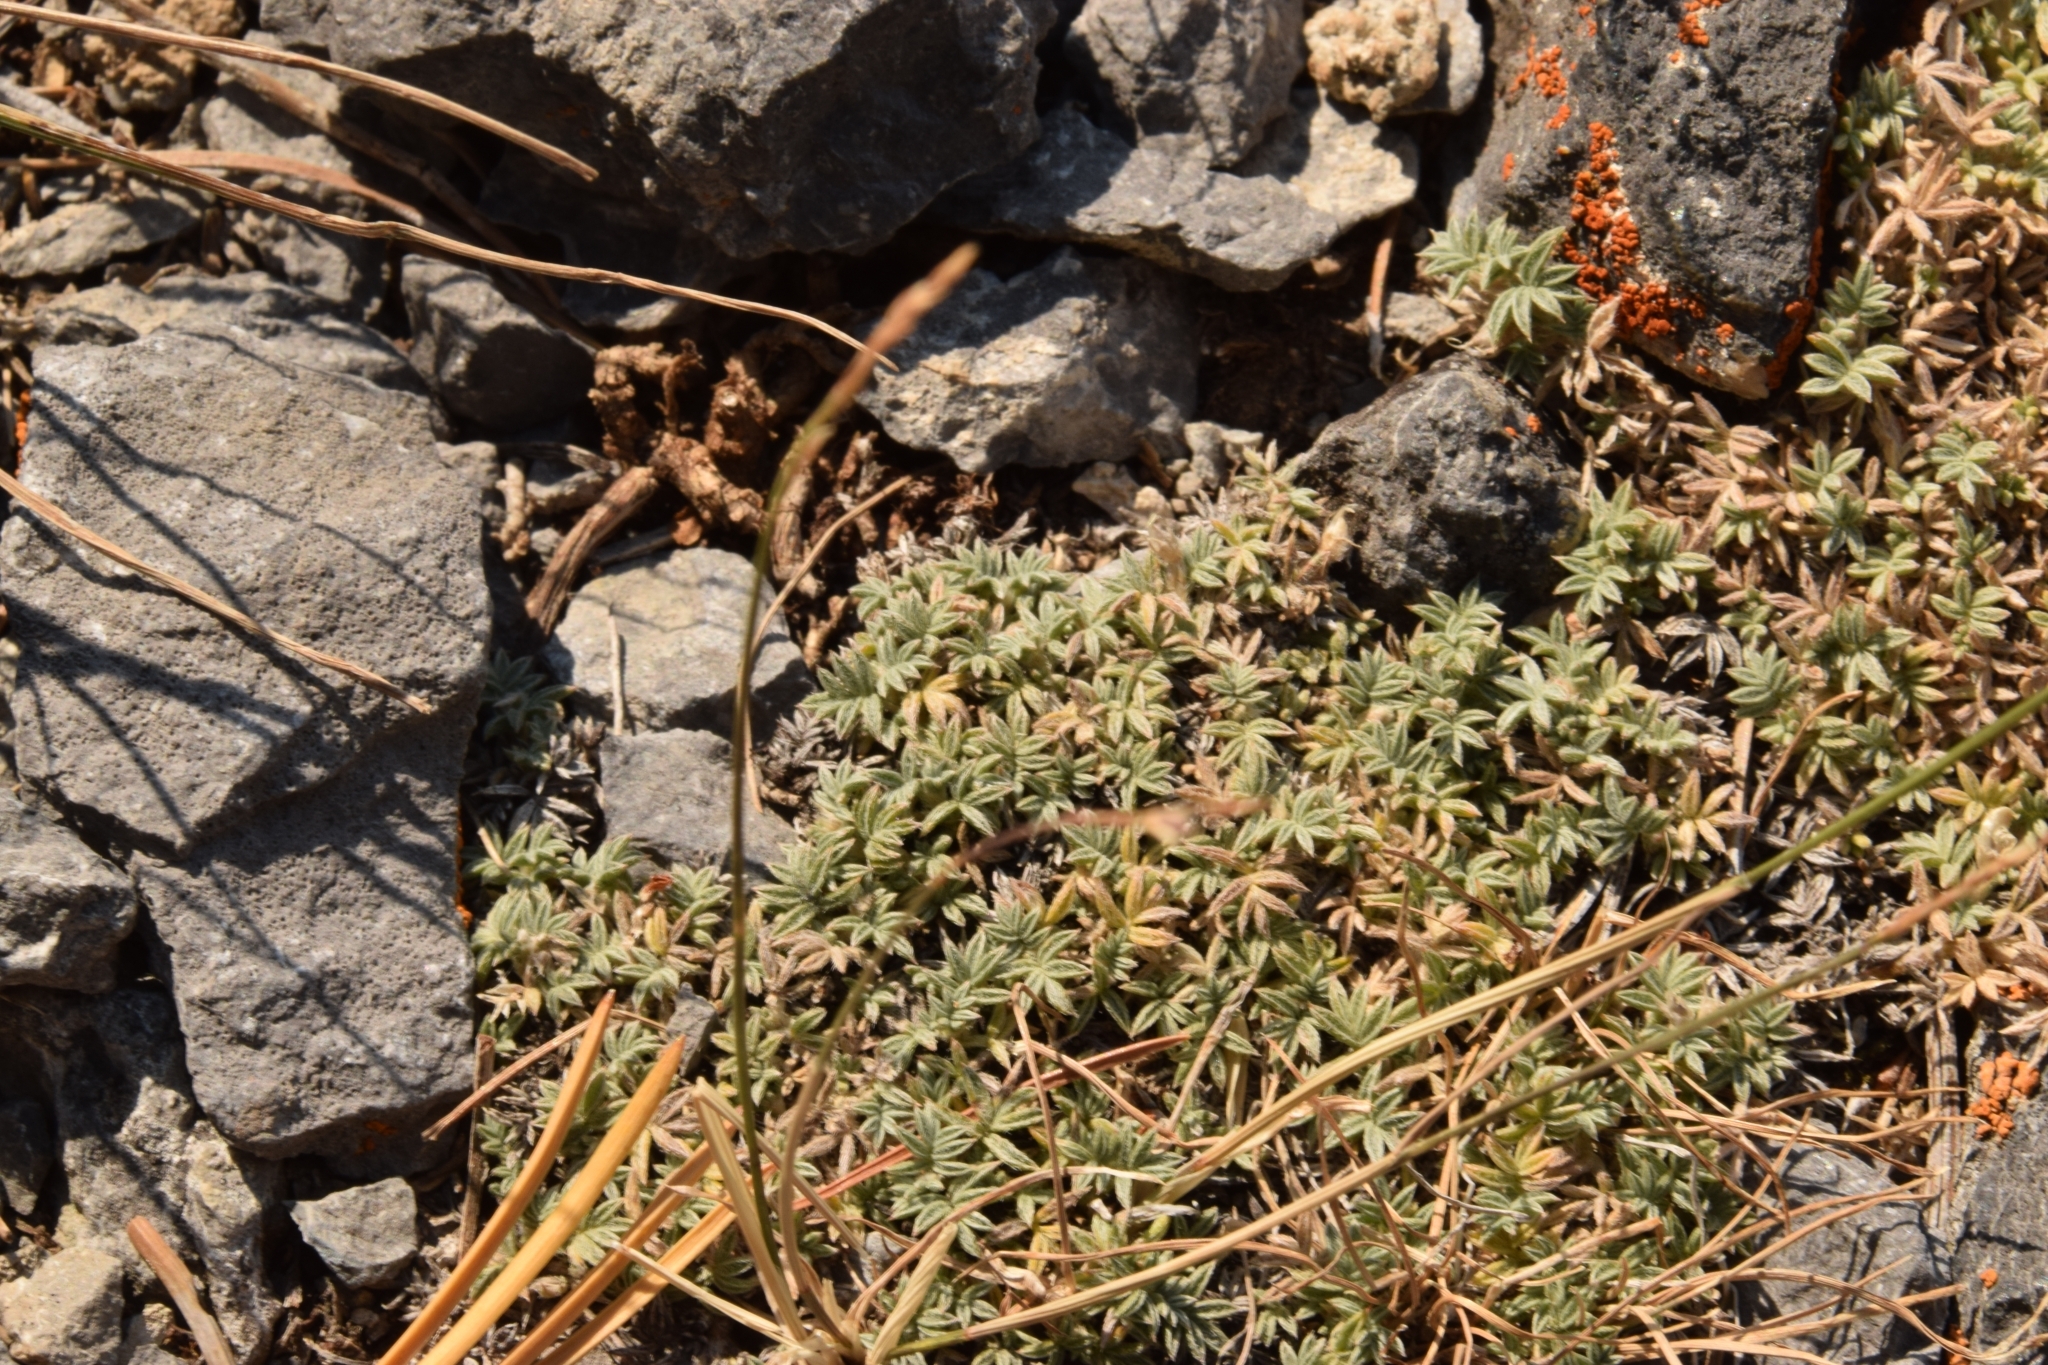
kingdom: Plantae
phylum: Tracheophyta
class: Magnoliopsida
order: Fabales
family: Fabaceae
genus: Astragalus
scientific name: Astragalus kentrophyta
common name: Prickly milk-vetch
